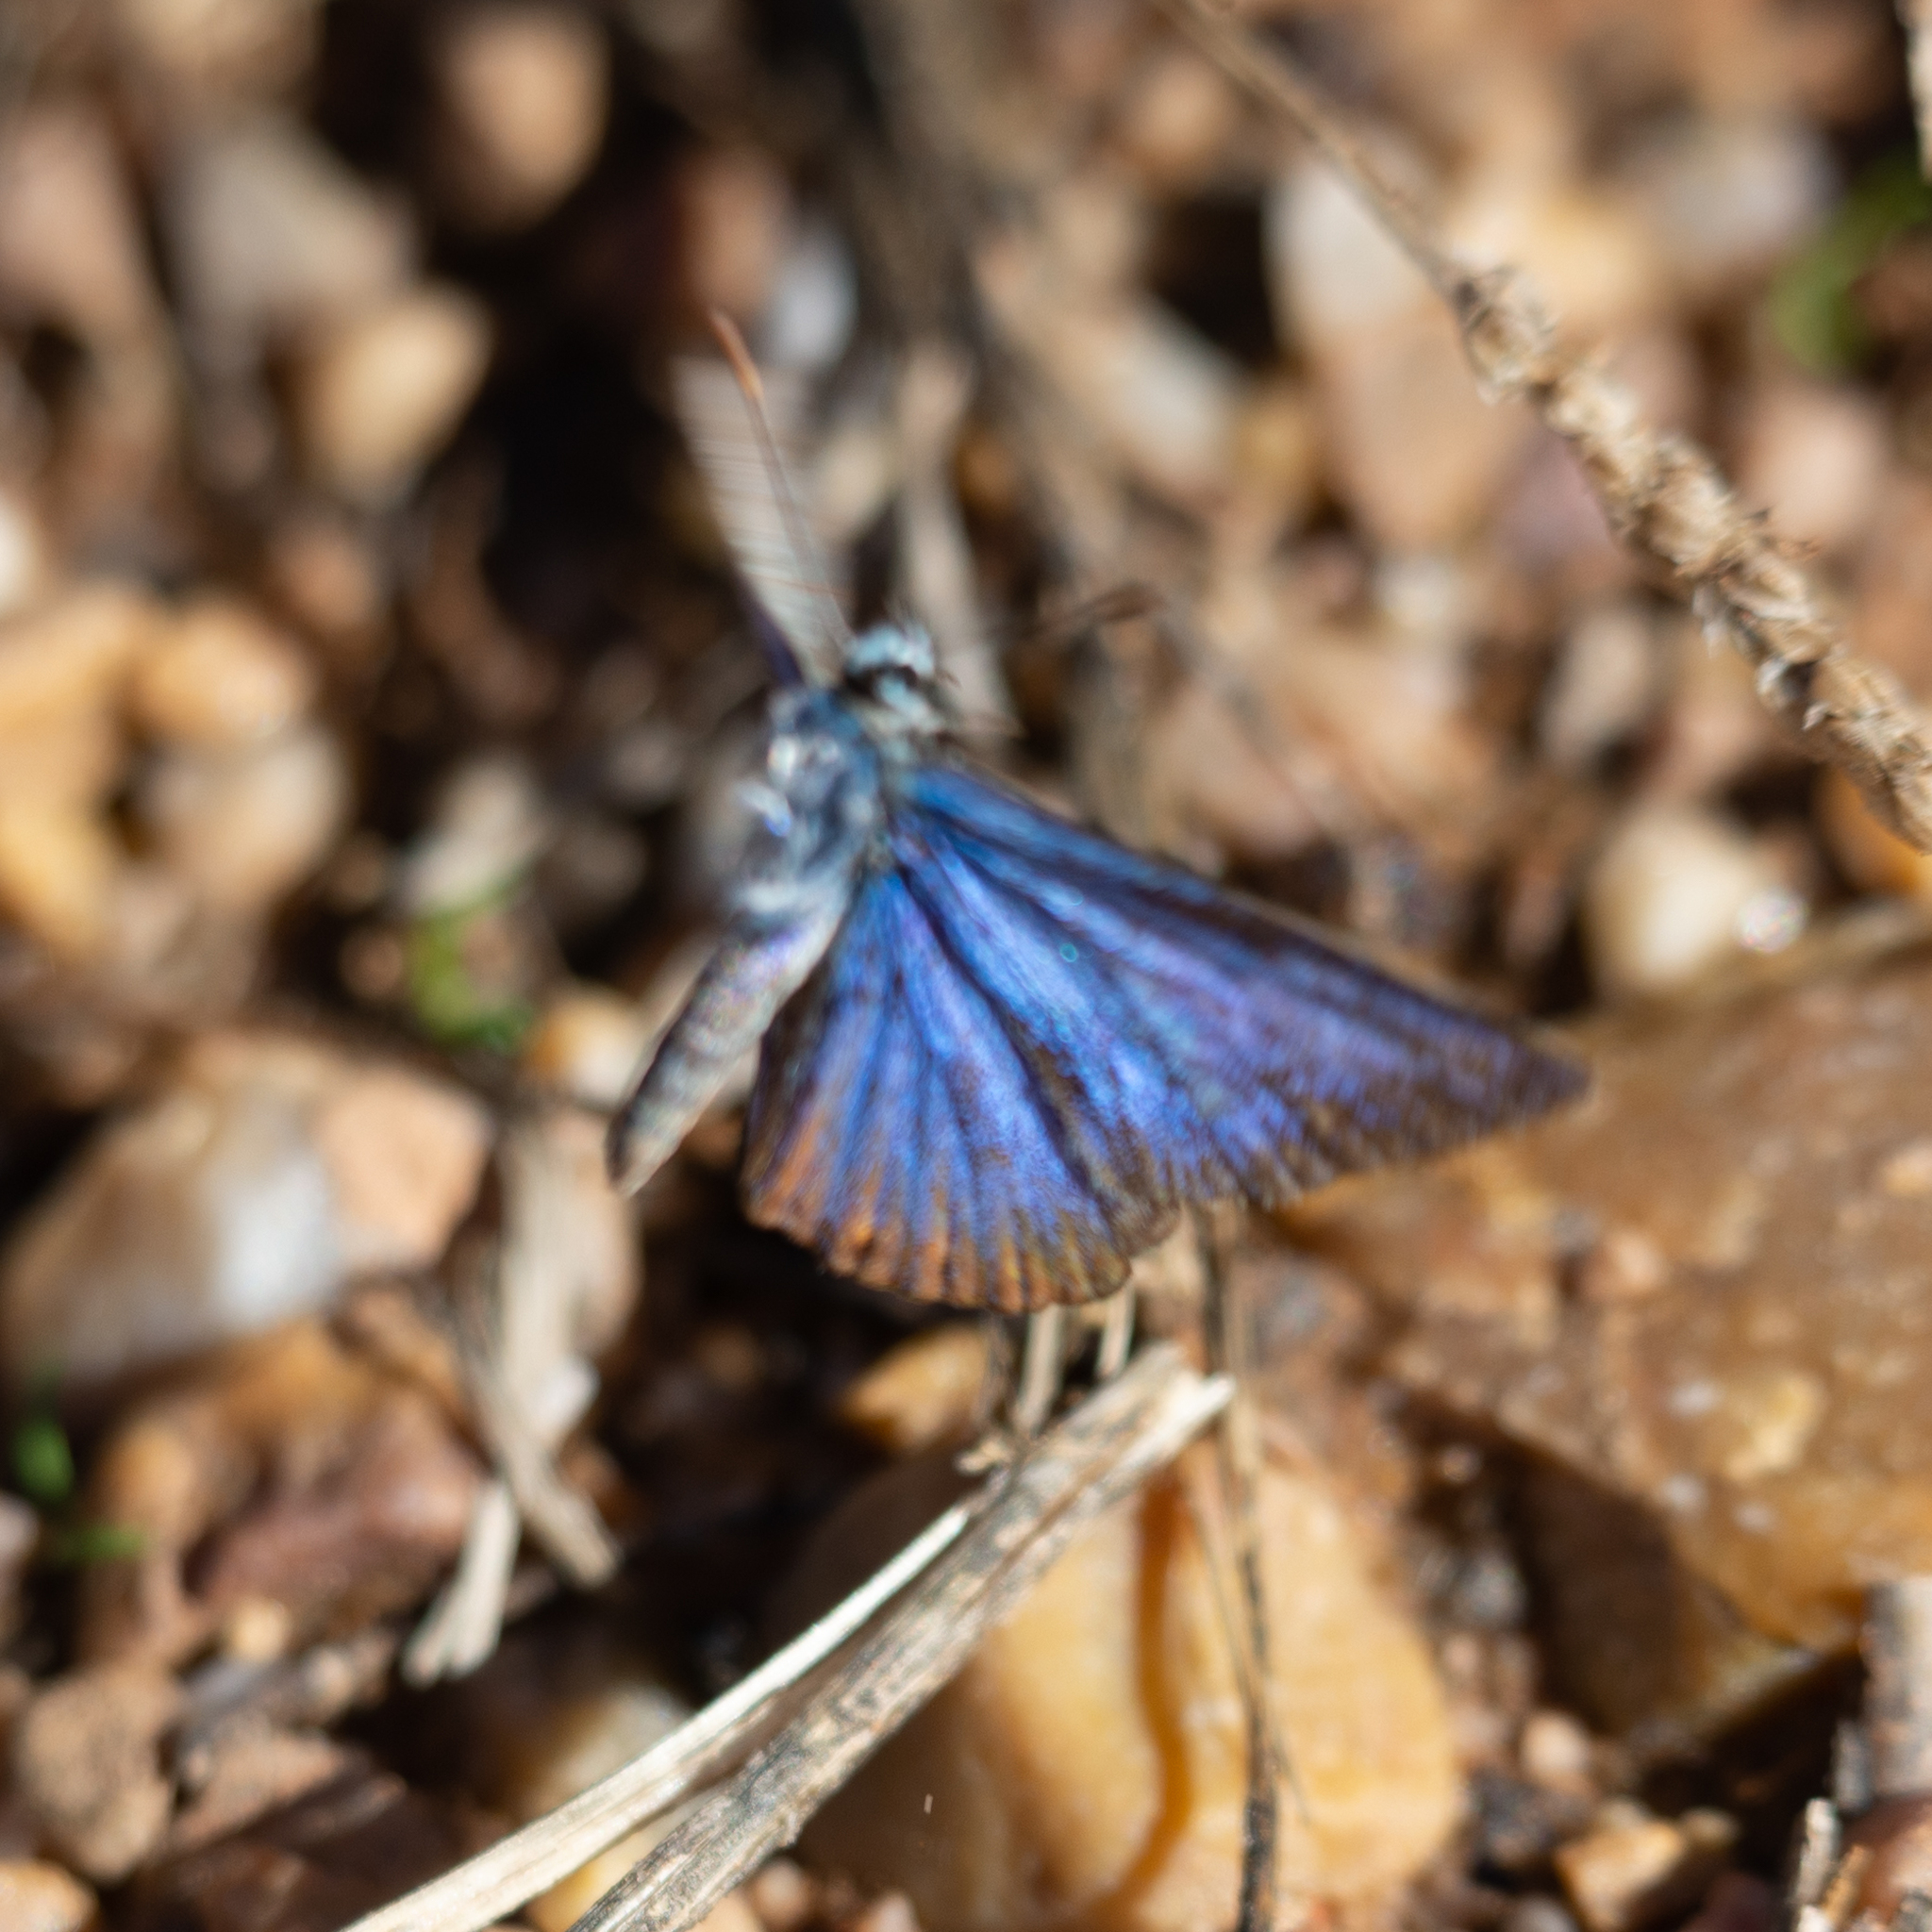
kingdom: Animalia
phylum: Arthropoda
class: Insecta
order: Lepidoptera
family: Lycaenidae
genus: Lysandra
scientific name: Lysandra bellargus
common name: Adonis blue
